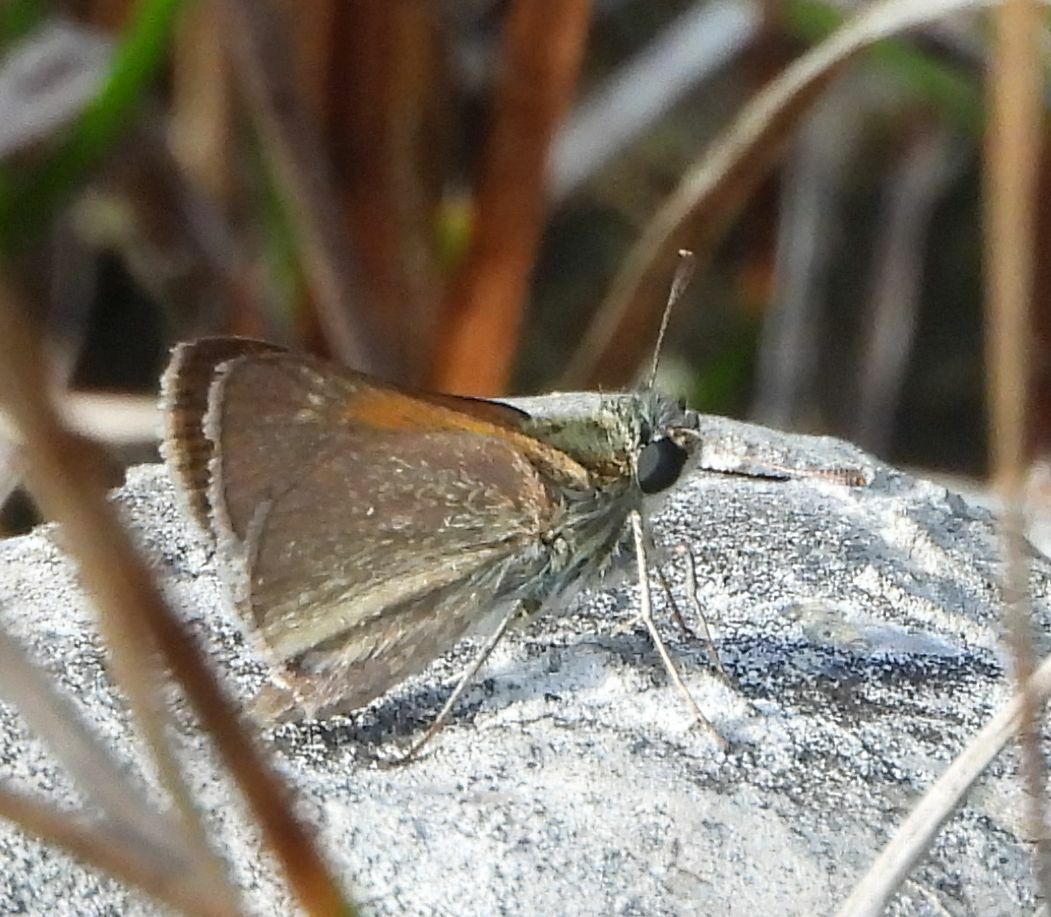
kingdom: Animalia
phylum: Arthropoda
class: Insecta
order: Lepidoptera
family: Hesperiidae
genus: Polites
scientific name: Polites themistocles
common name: Tawny-edged skipper
